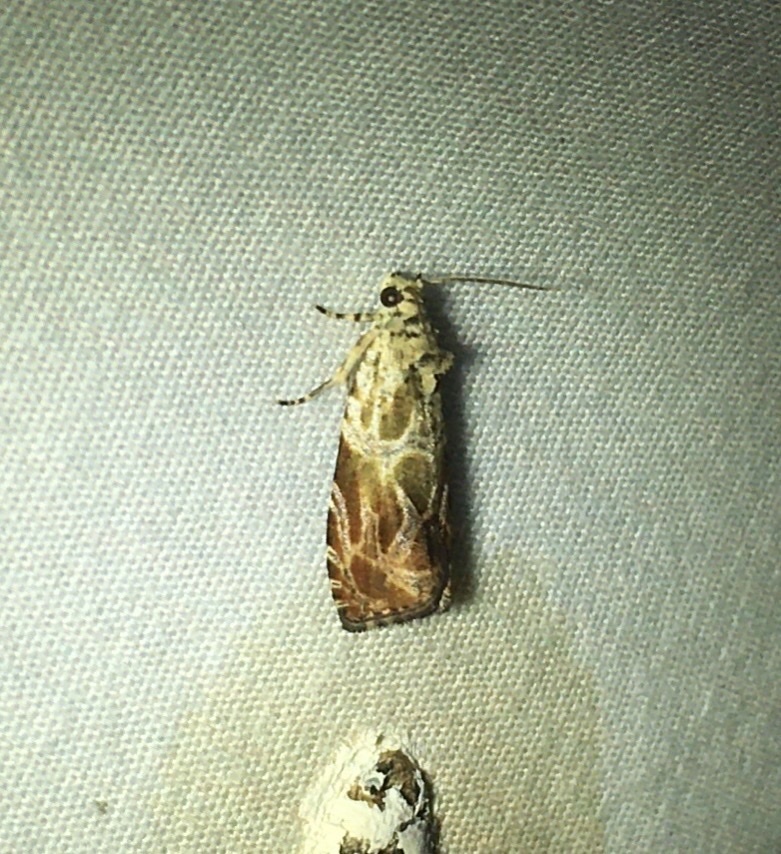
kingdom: Animalia
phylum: Arthropoda
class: Insecta
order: Lepidoptera
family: Tortricidae
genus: Olethreutes
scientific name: Olethreutes permundana
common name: Raspberry leafroller moth
